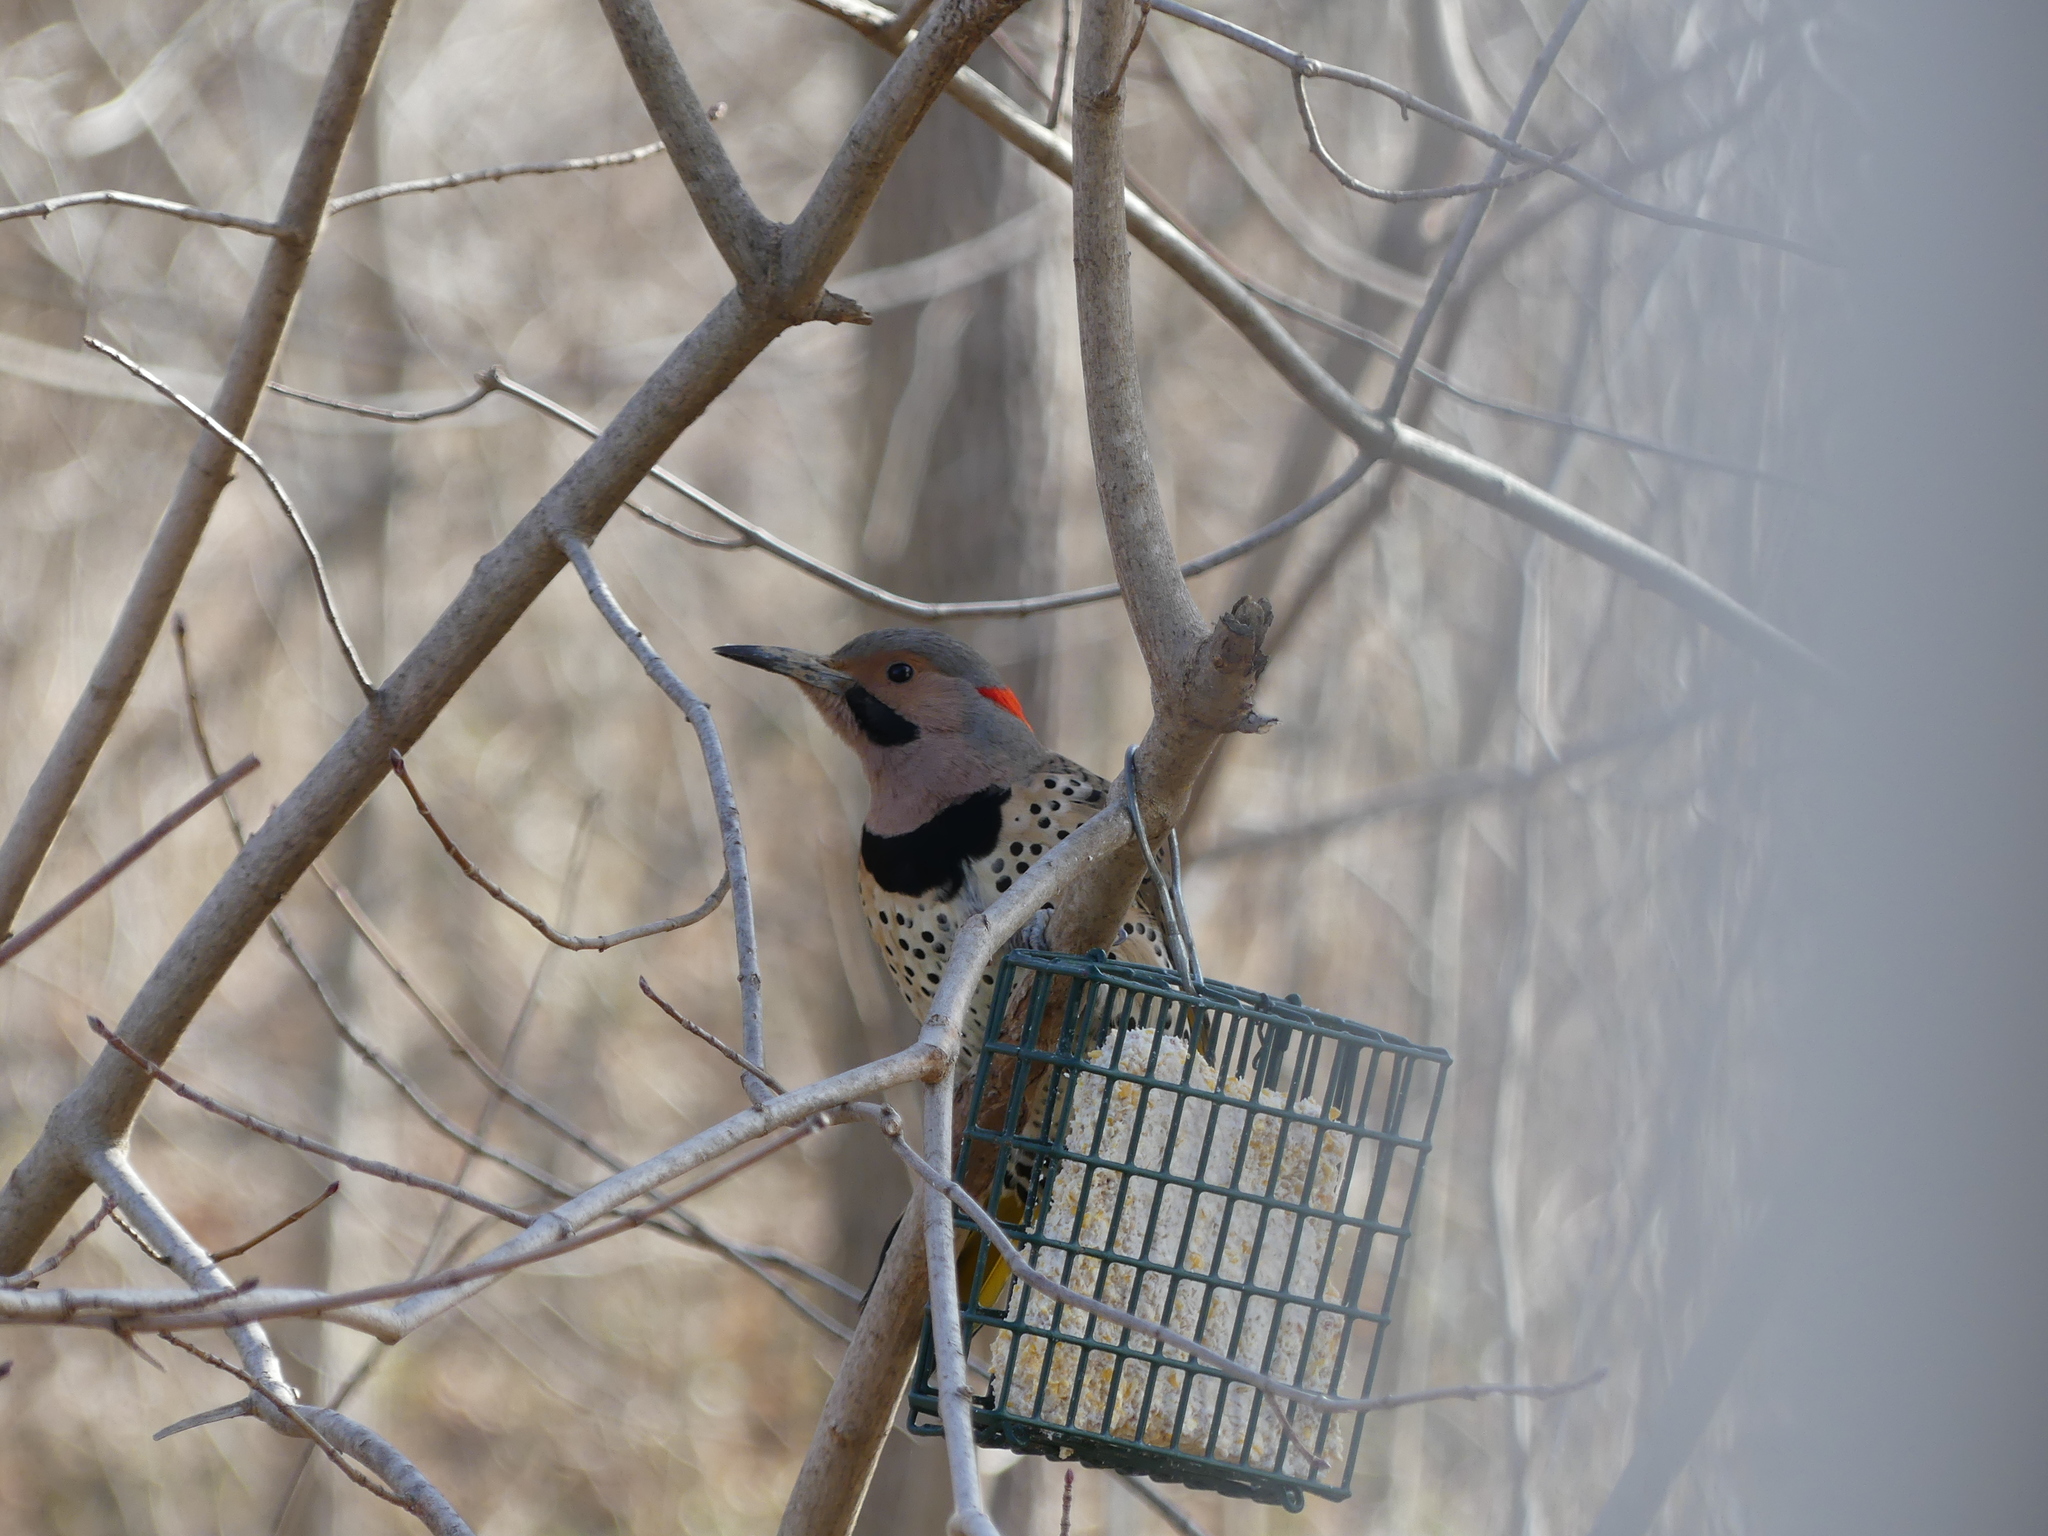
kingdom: Animalia
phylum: Chordata
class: Aves
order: Piciformes
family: Picidae
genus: Colaptes
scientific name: Colaptes auratus
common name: Northern flicker
